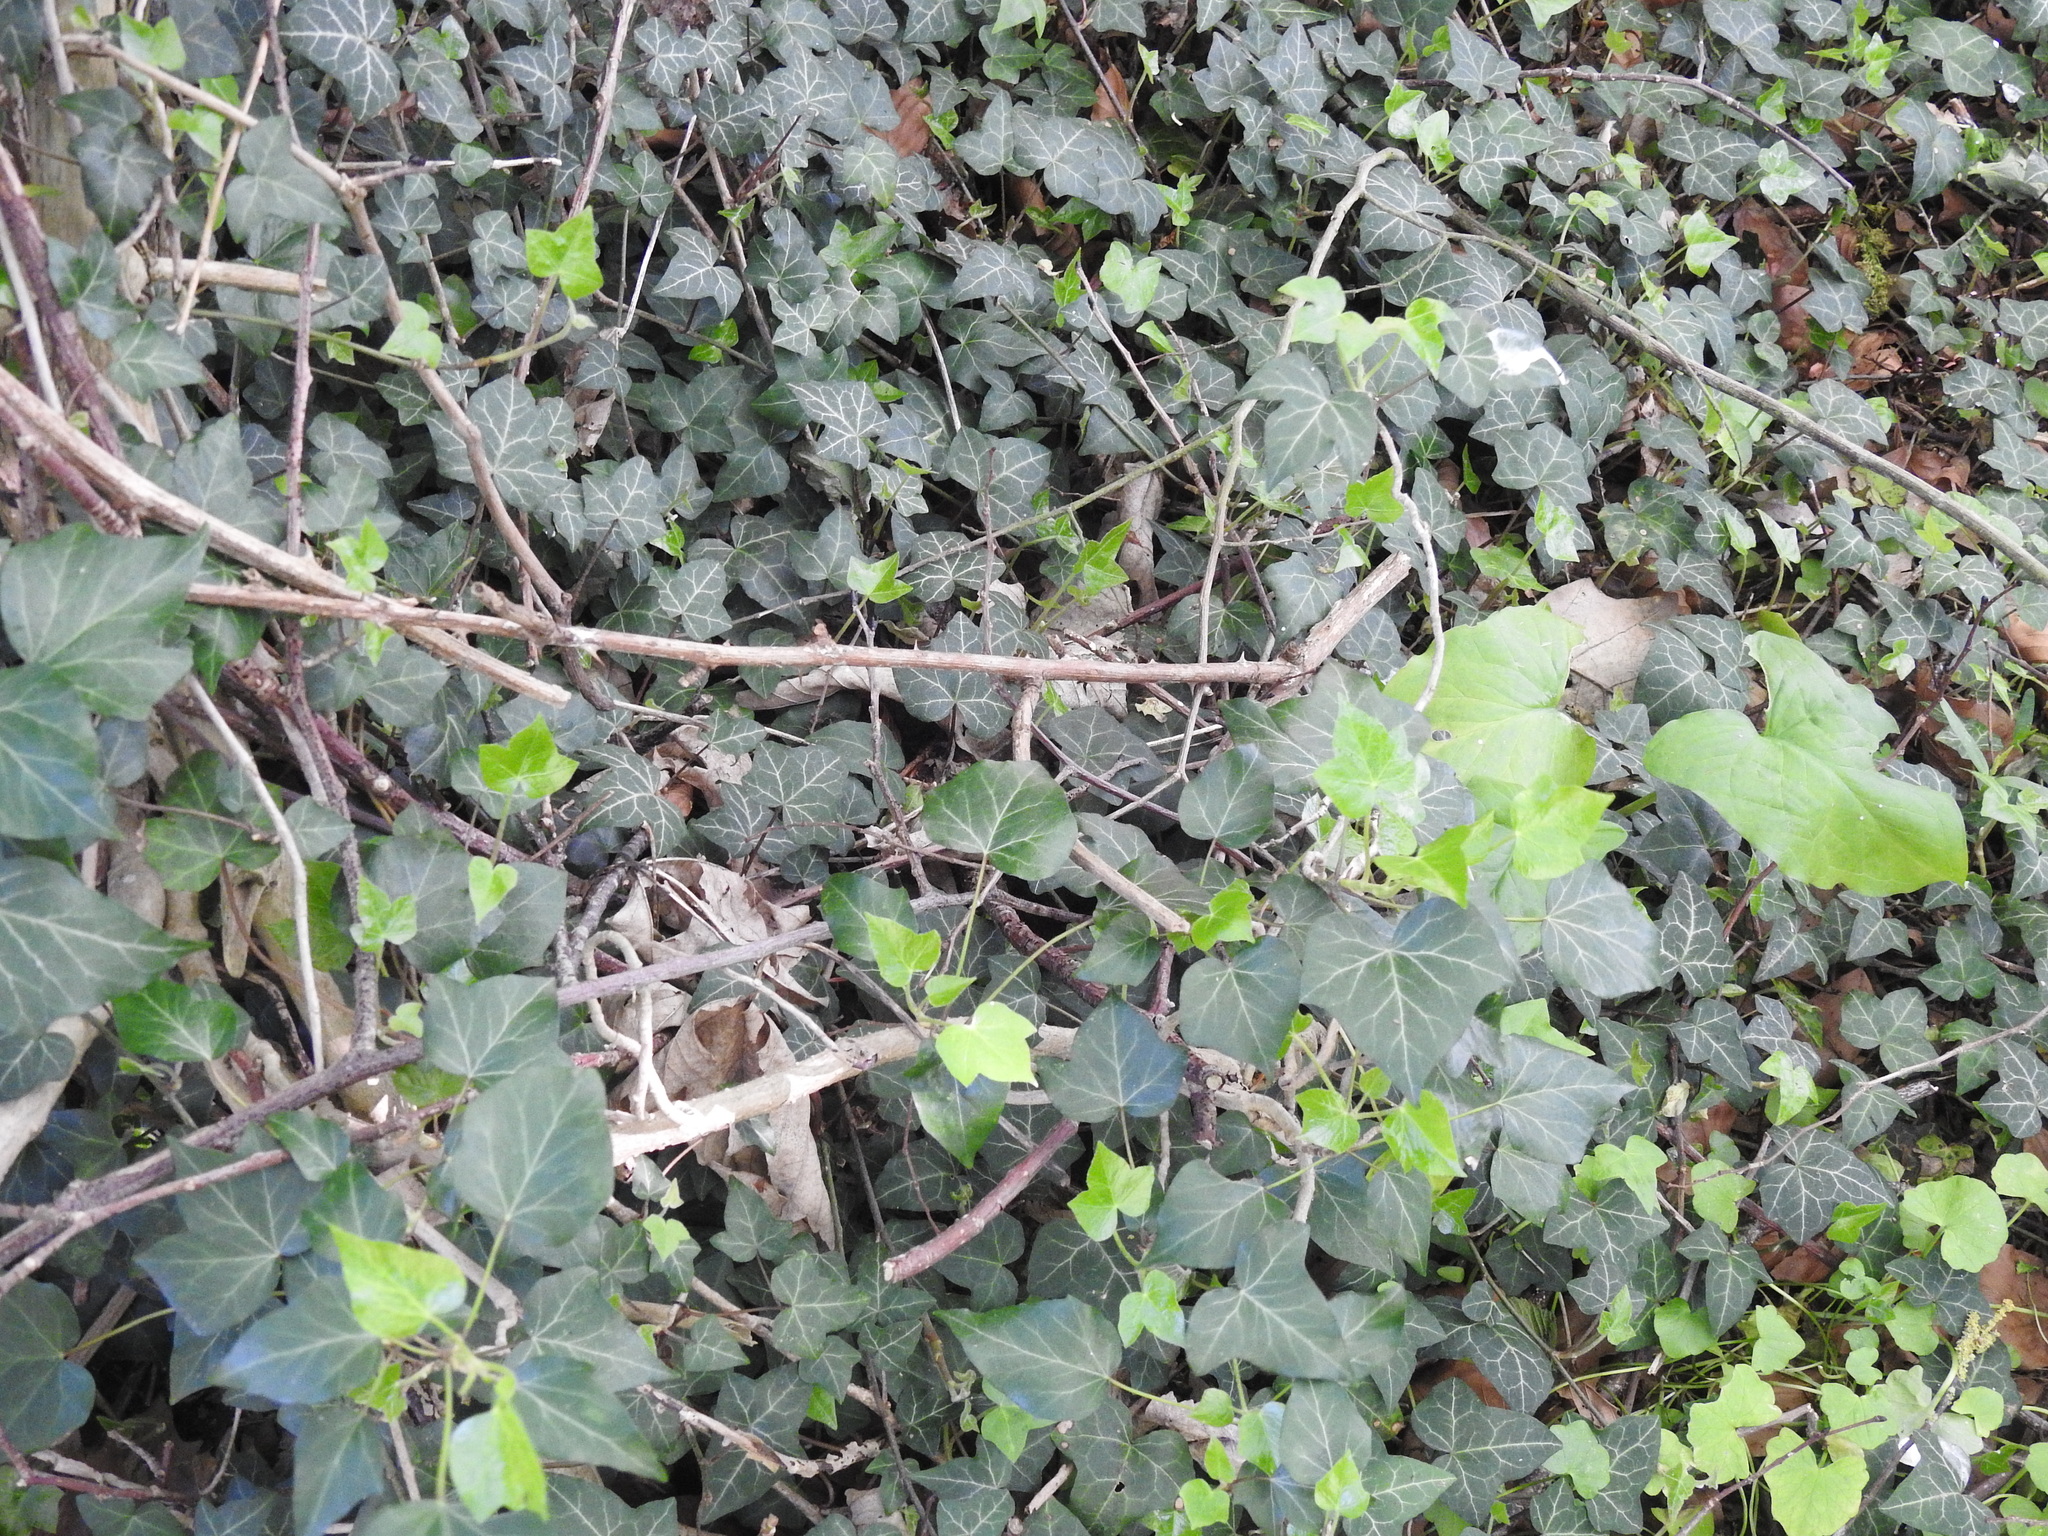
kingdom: Plantae
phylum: Tracheophyta
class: Magnoliopsida
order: Apiales
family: Araliaceae
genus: Hedera
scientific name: Hedera helix
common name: Ivy
